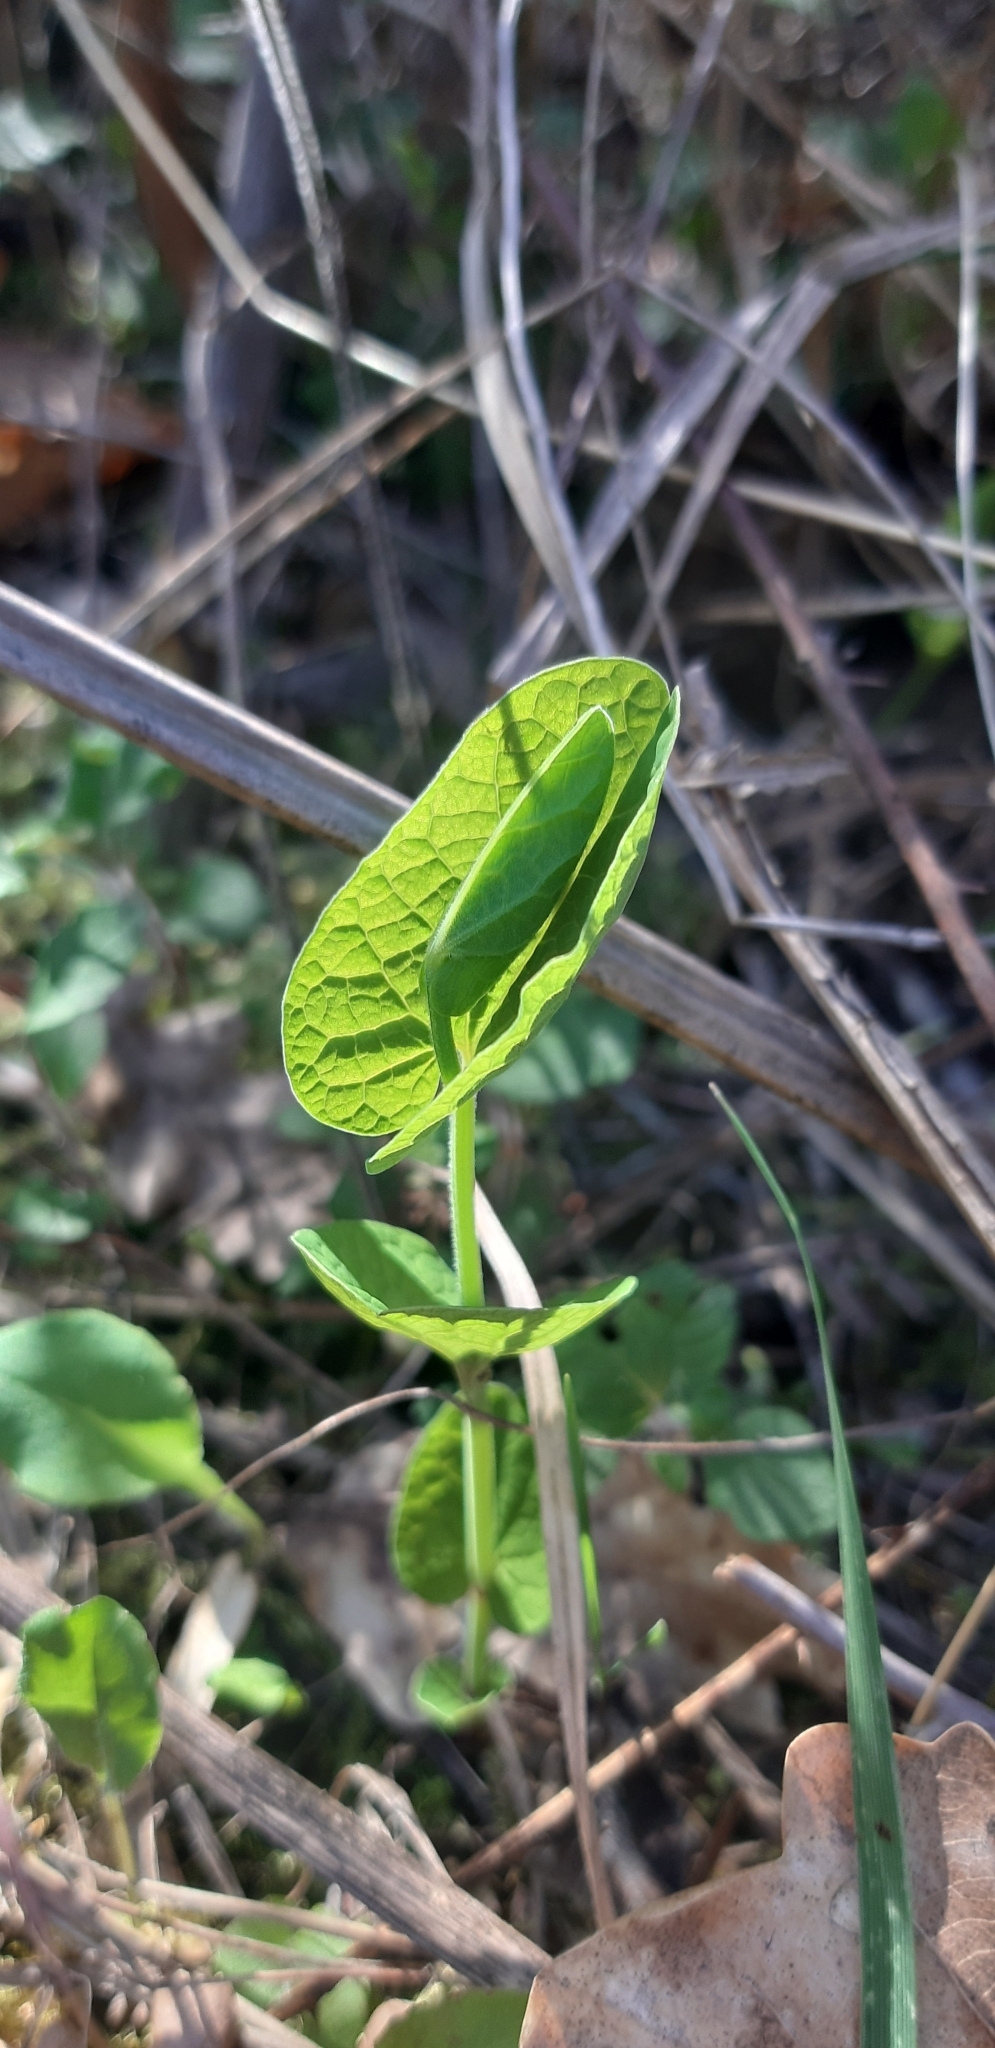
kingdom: Plantae
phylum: Tracheophyta
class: Magnoliopsida
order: Piperales
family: Aristolochiaceae
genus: Aristolochia
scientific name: Aristolochia rotunda
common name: Smearwort
